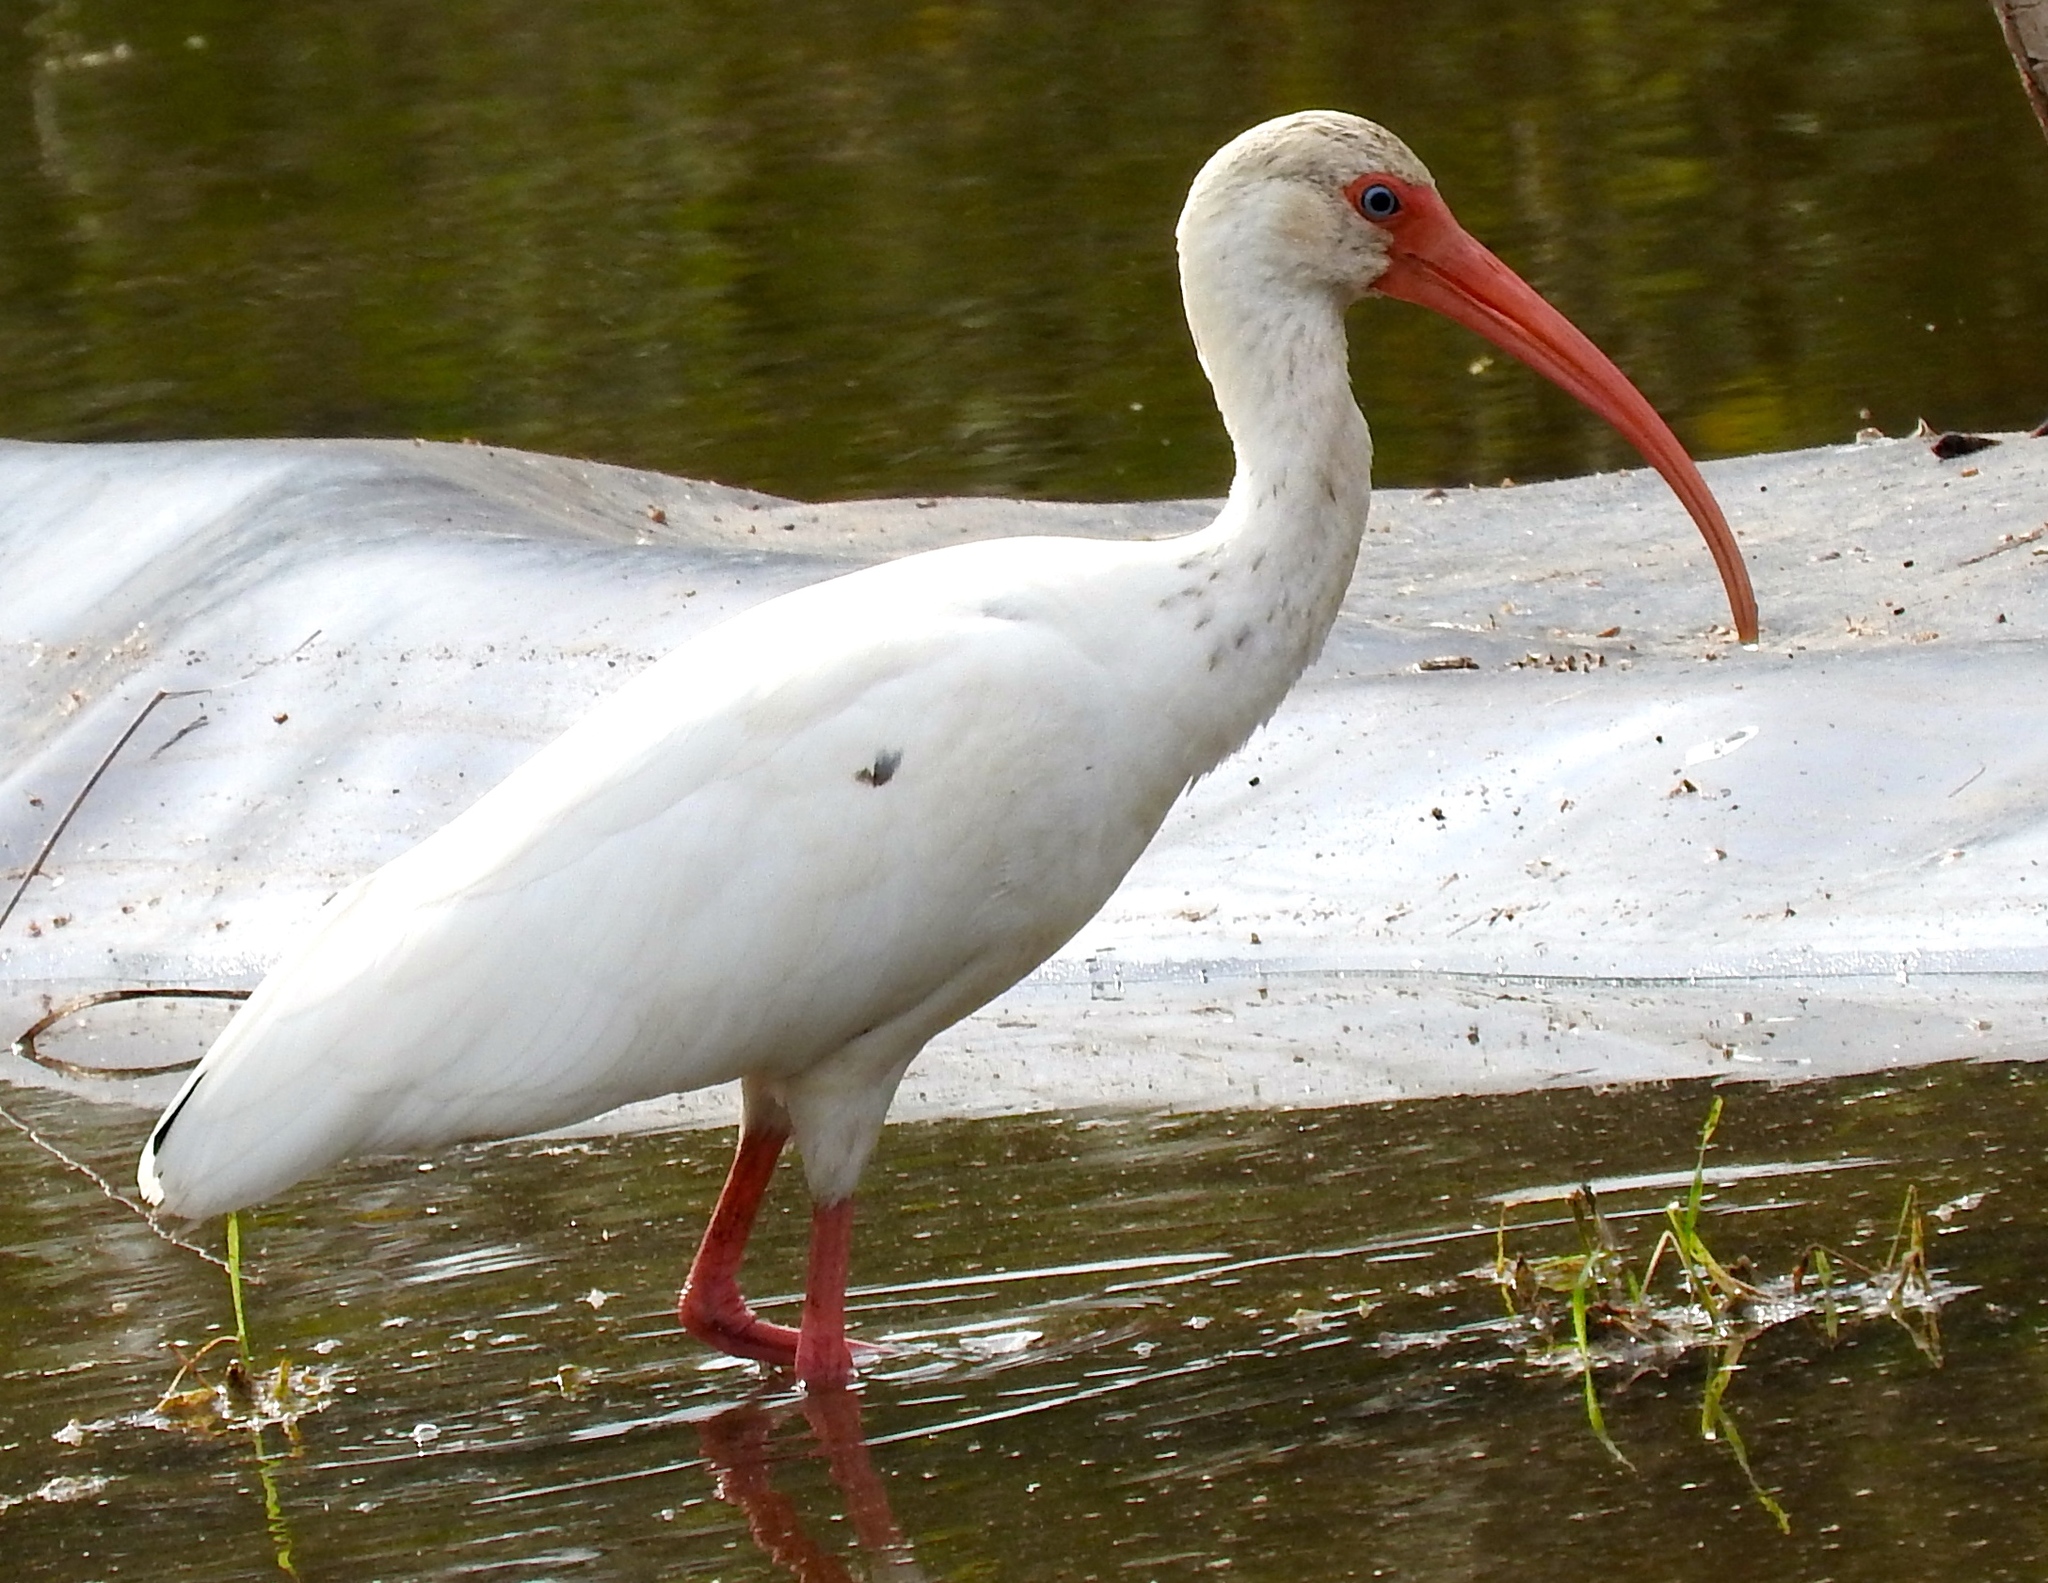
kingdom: Animalia
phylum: Chordata
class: Aves
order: Pelecaniformes
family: Threskiornithidae
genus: Eudocimus
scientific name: Eudocimus albus
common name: White ibis
